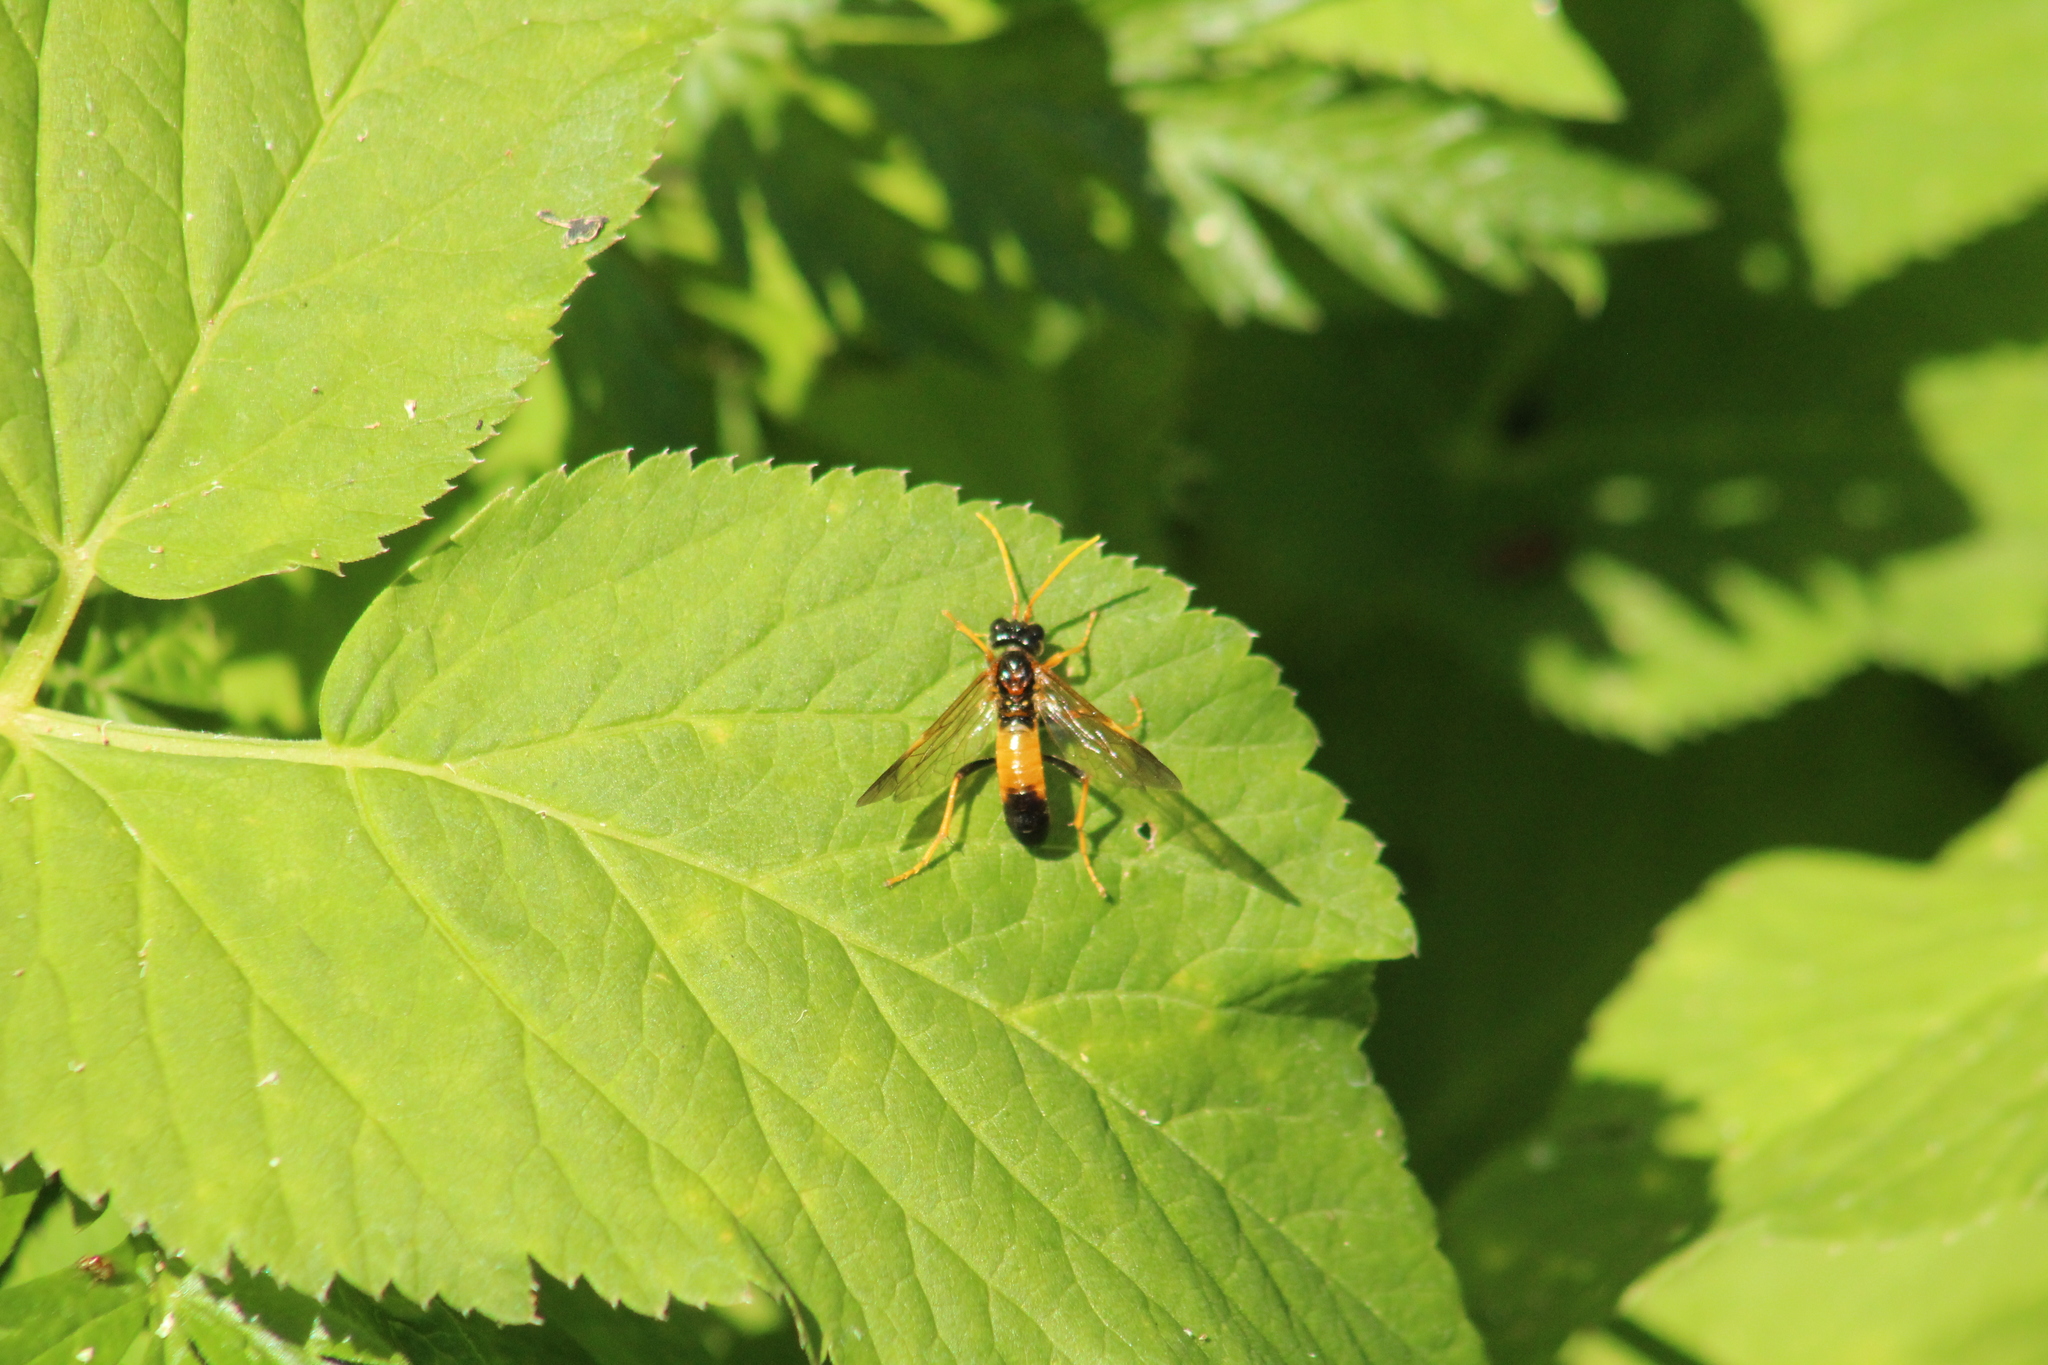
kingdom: Animalia
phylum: Arthropoda
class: Insecta
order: Hymenoptera
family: Tenthredinidae
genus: Tenthredo
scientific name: Tenthredo campestris
